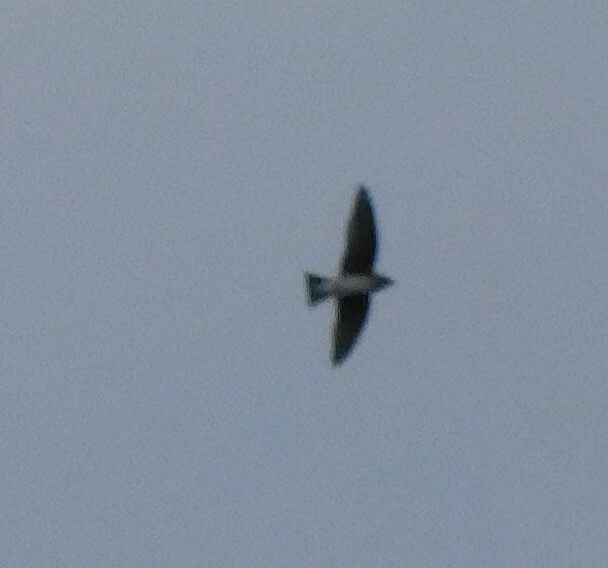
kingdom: Animalia
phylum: Chordata
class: Aves
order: Passeriformes
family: Hirundinidae
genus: Progne
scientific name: Progne subis
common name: Purple martin
